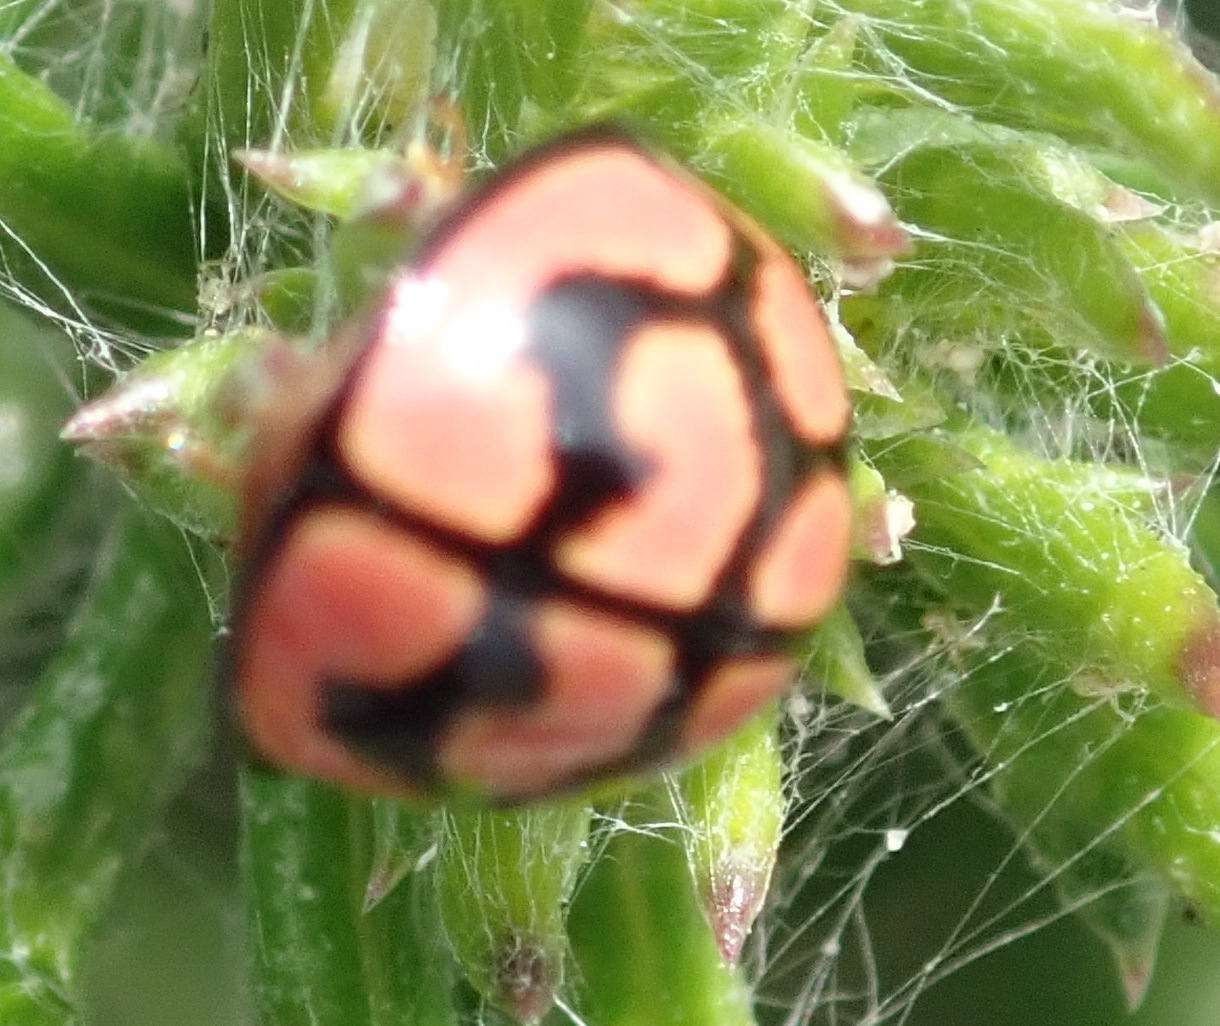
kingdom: Animalia
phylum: Arthropoda
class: Insecta
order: Coleoptera
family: Coccinellidae
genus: Cheilomenes
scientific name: Cheilomenes lunata
